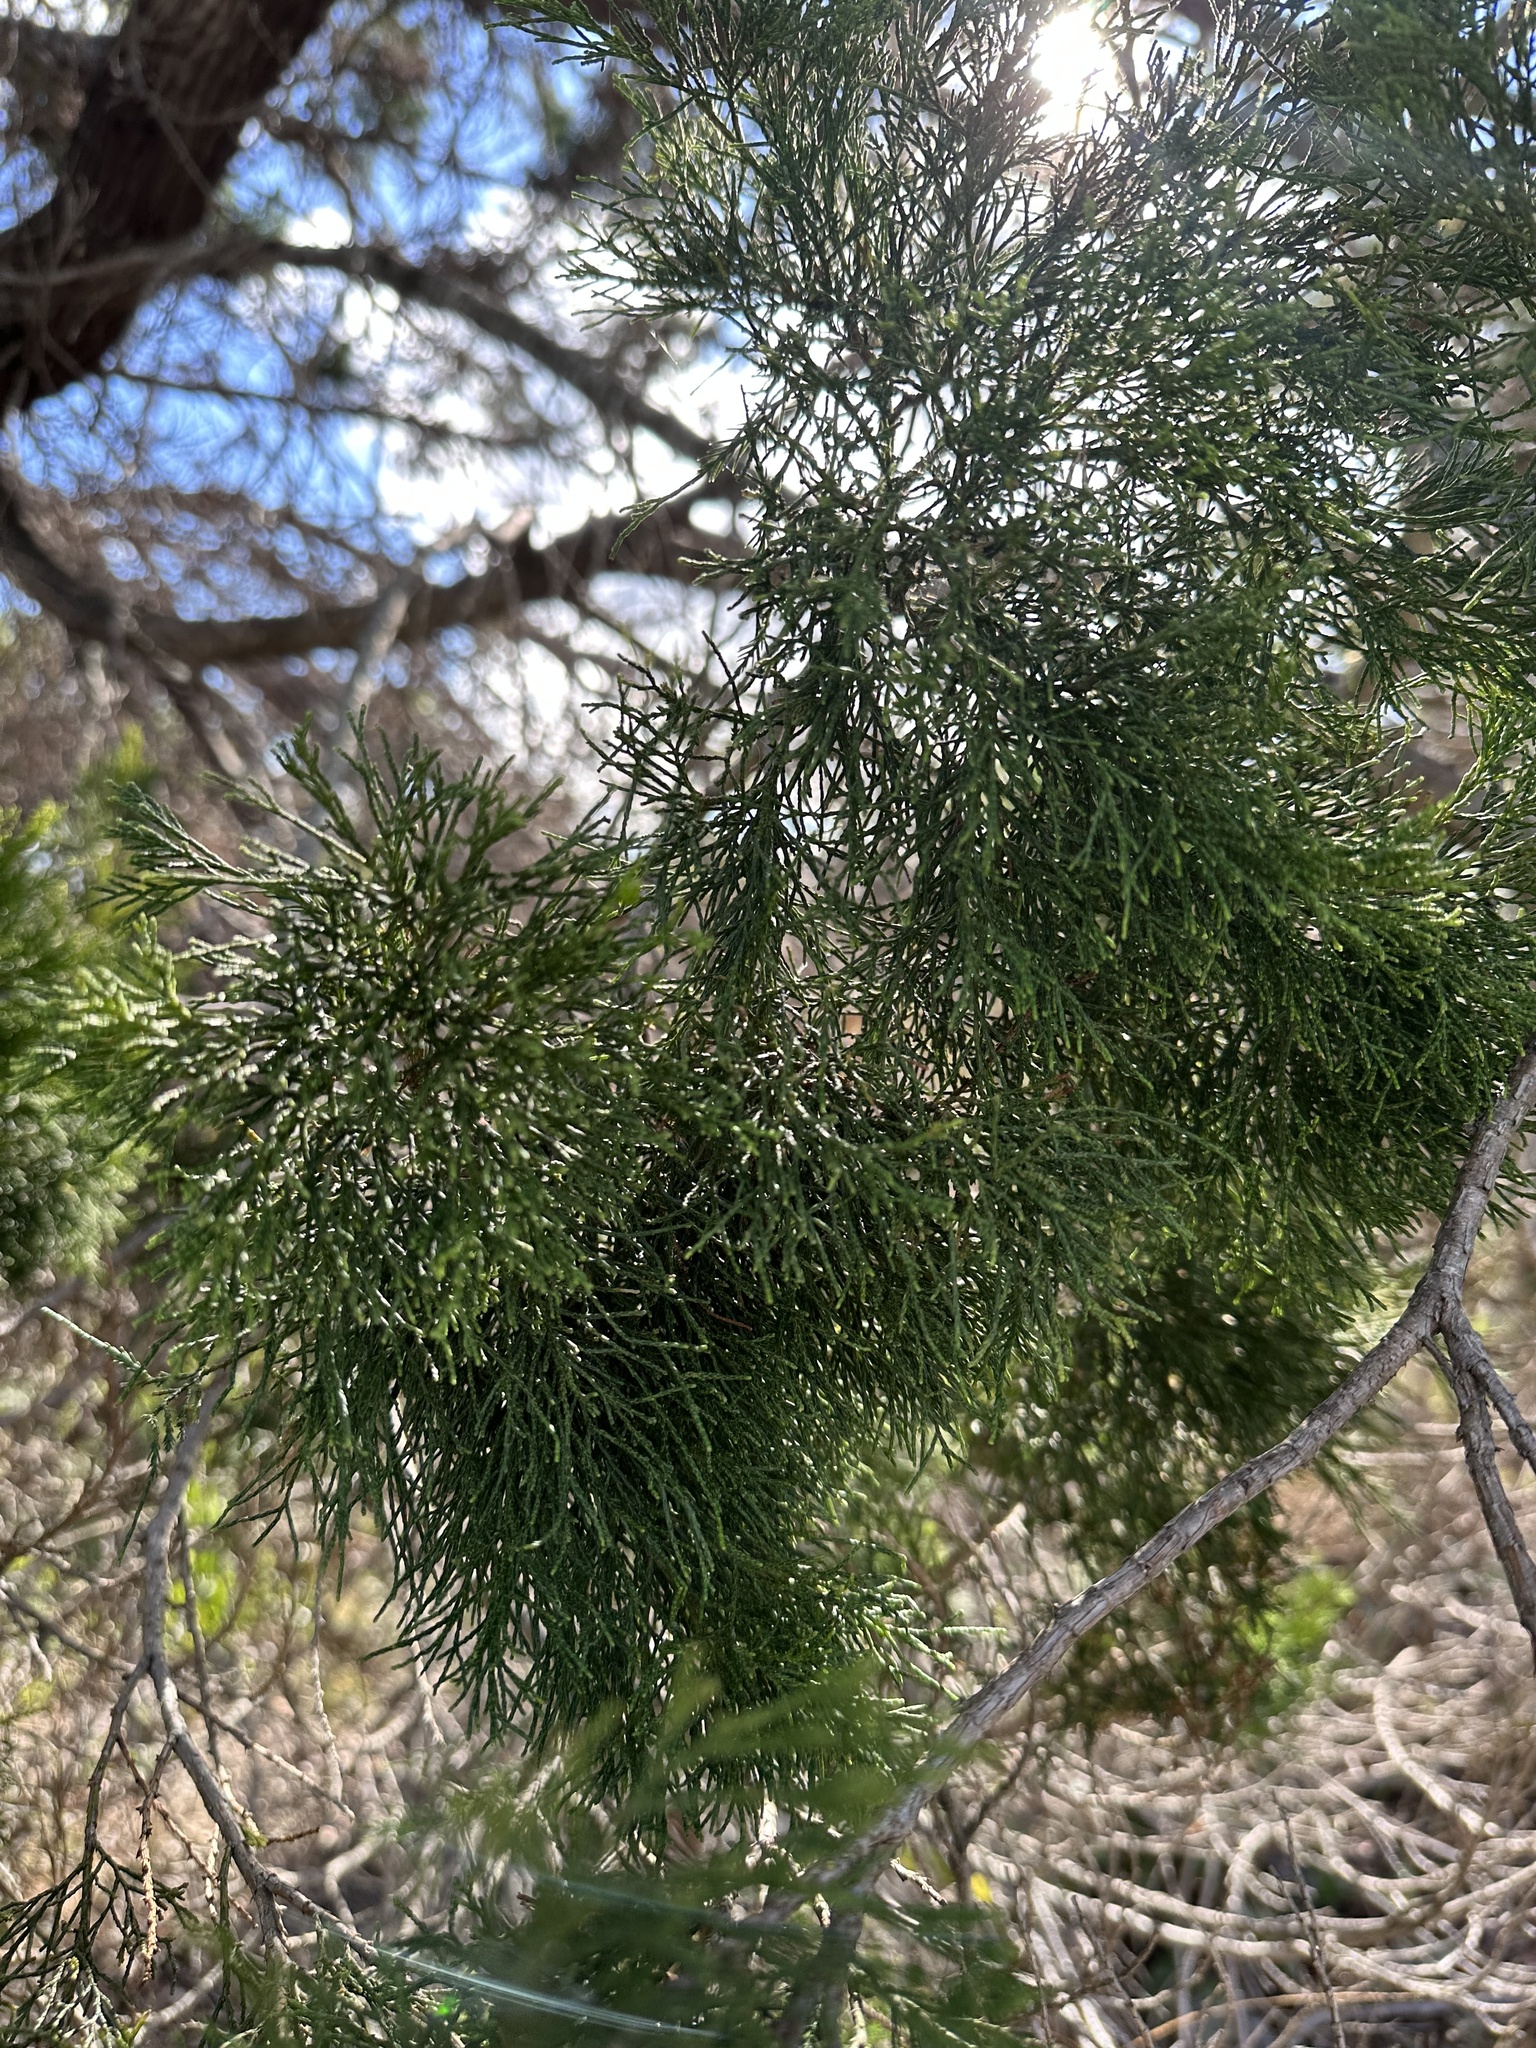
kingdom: Plantae
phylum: Tracheophyta
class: Pinopsida
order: Pinales
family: Cupressaceae
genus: Callitris
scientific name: Callitris columellaris
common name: White cypress-pine
